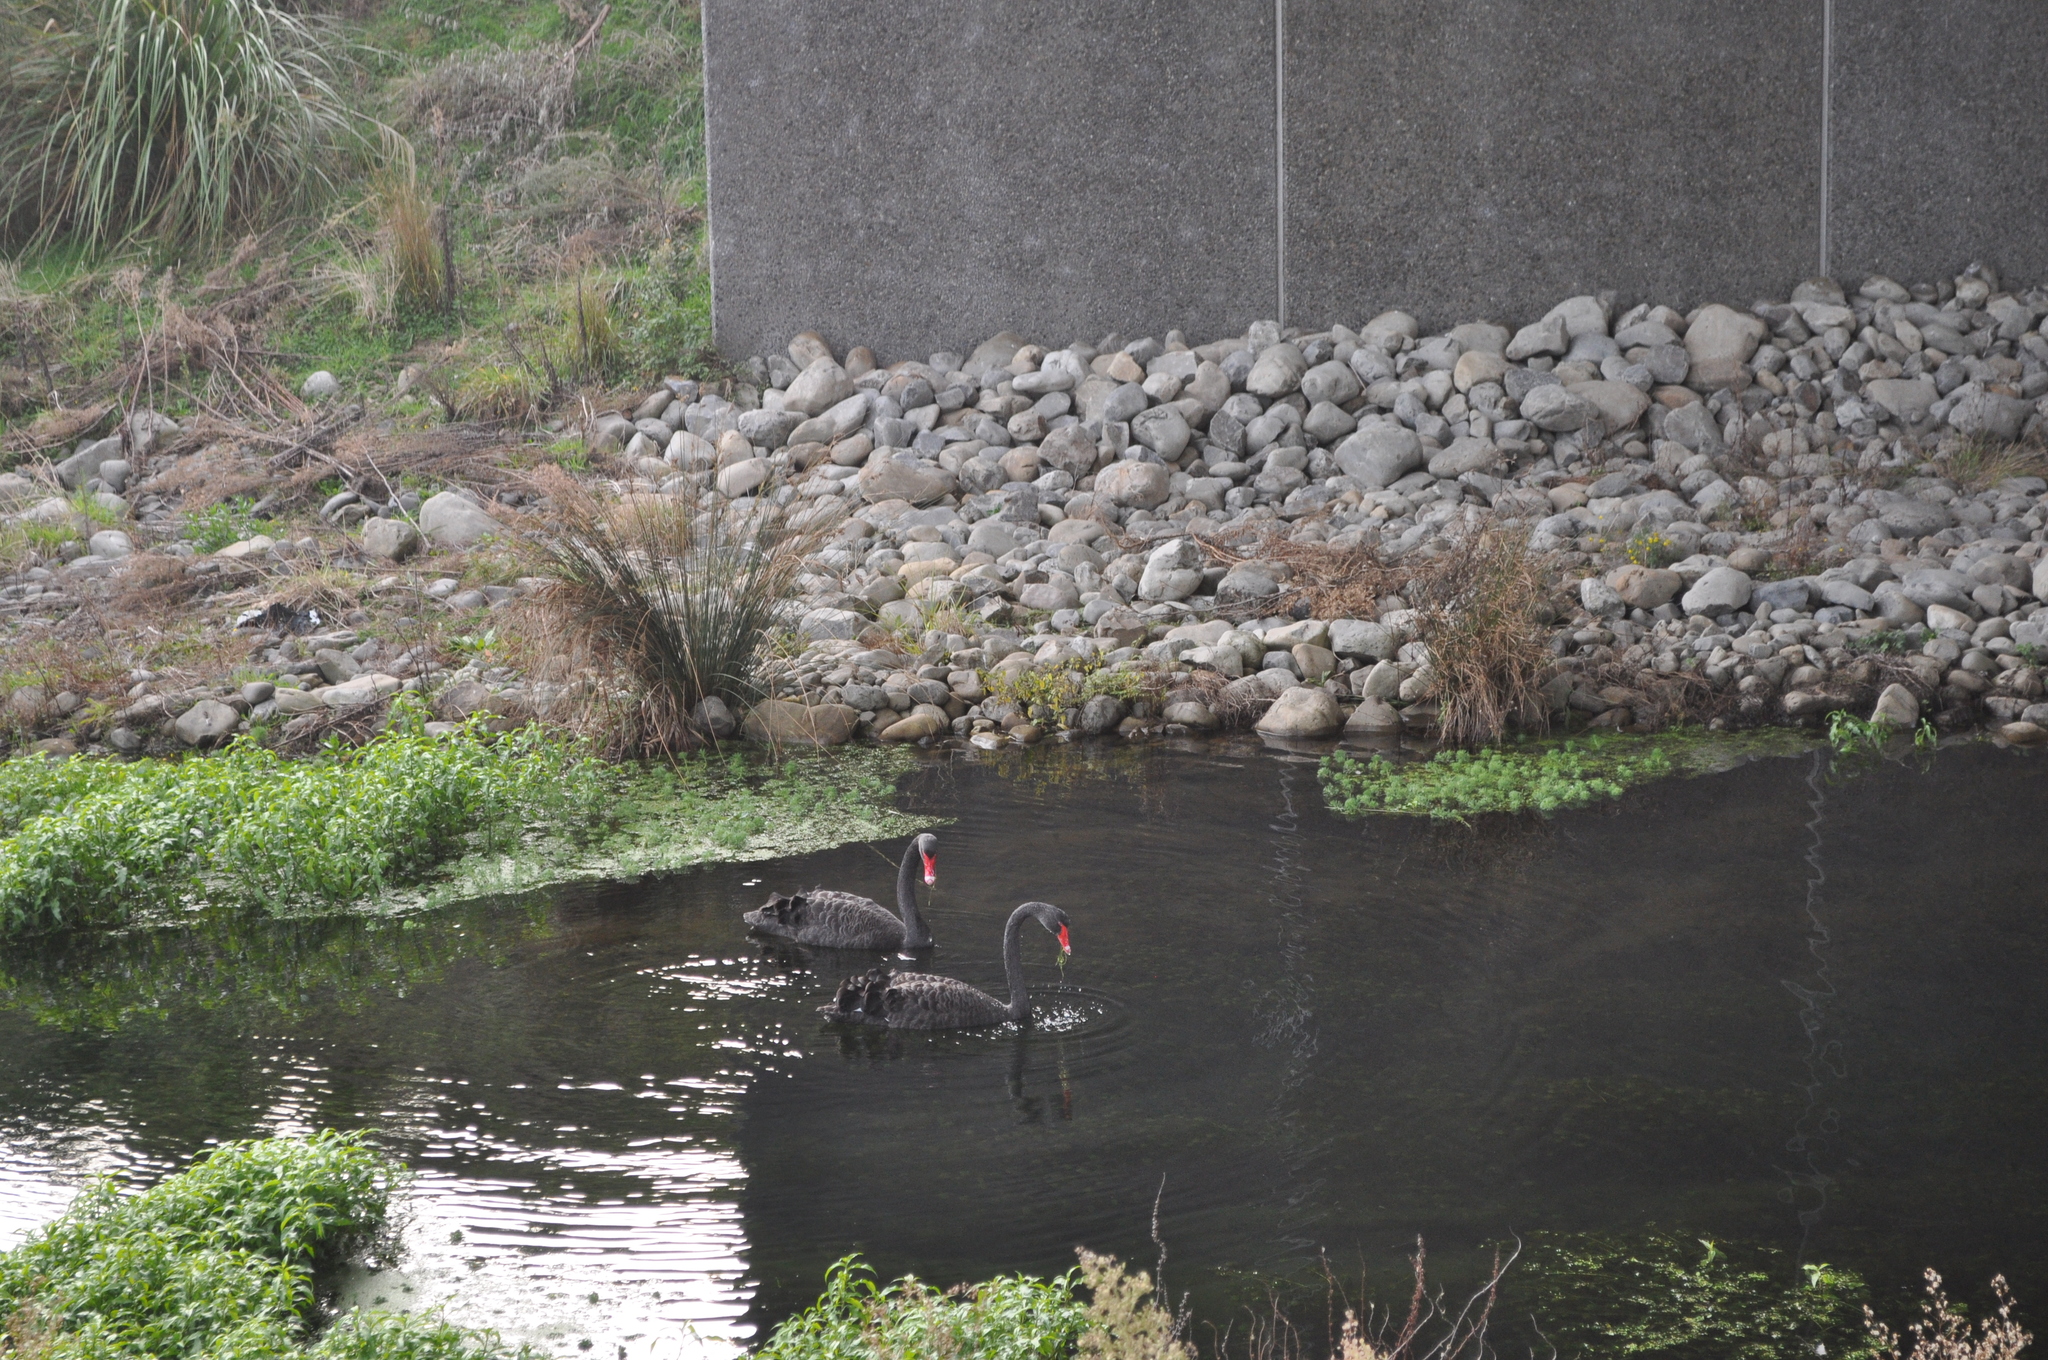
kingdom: Animalia
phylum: Chordata
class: Aves
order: Anseriformes
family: Anatidae
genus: Cygnus
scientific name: Cygnus atratus
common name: Black swan
